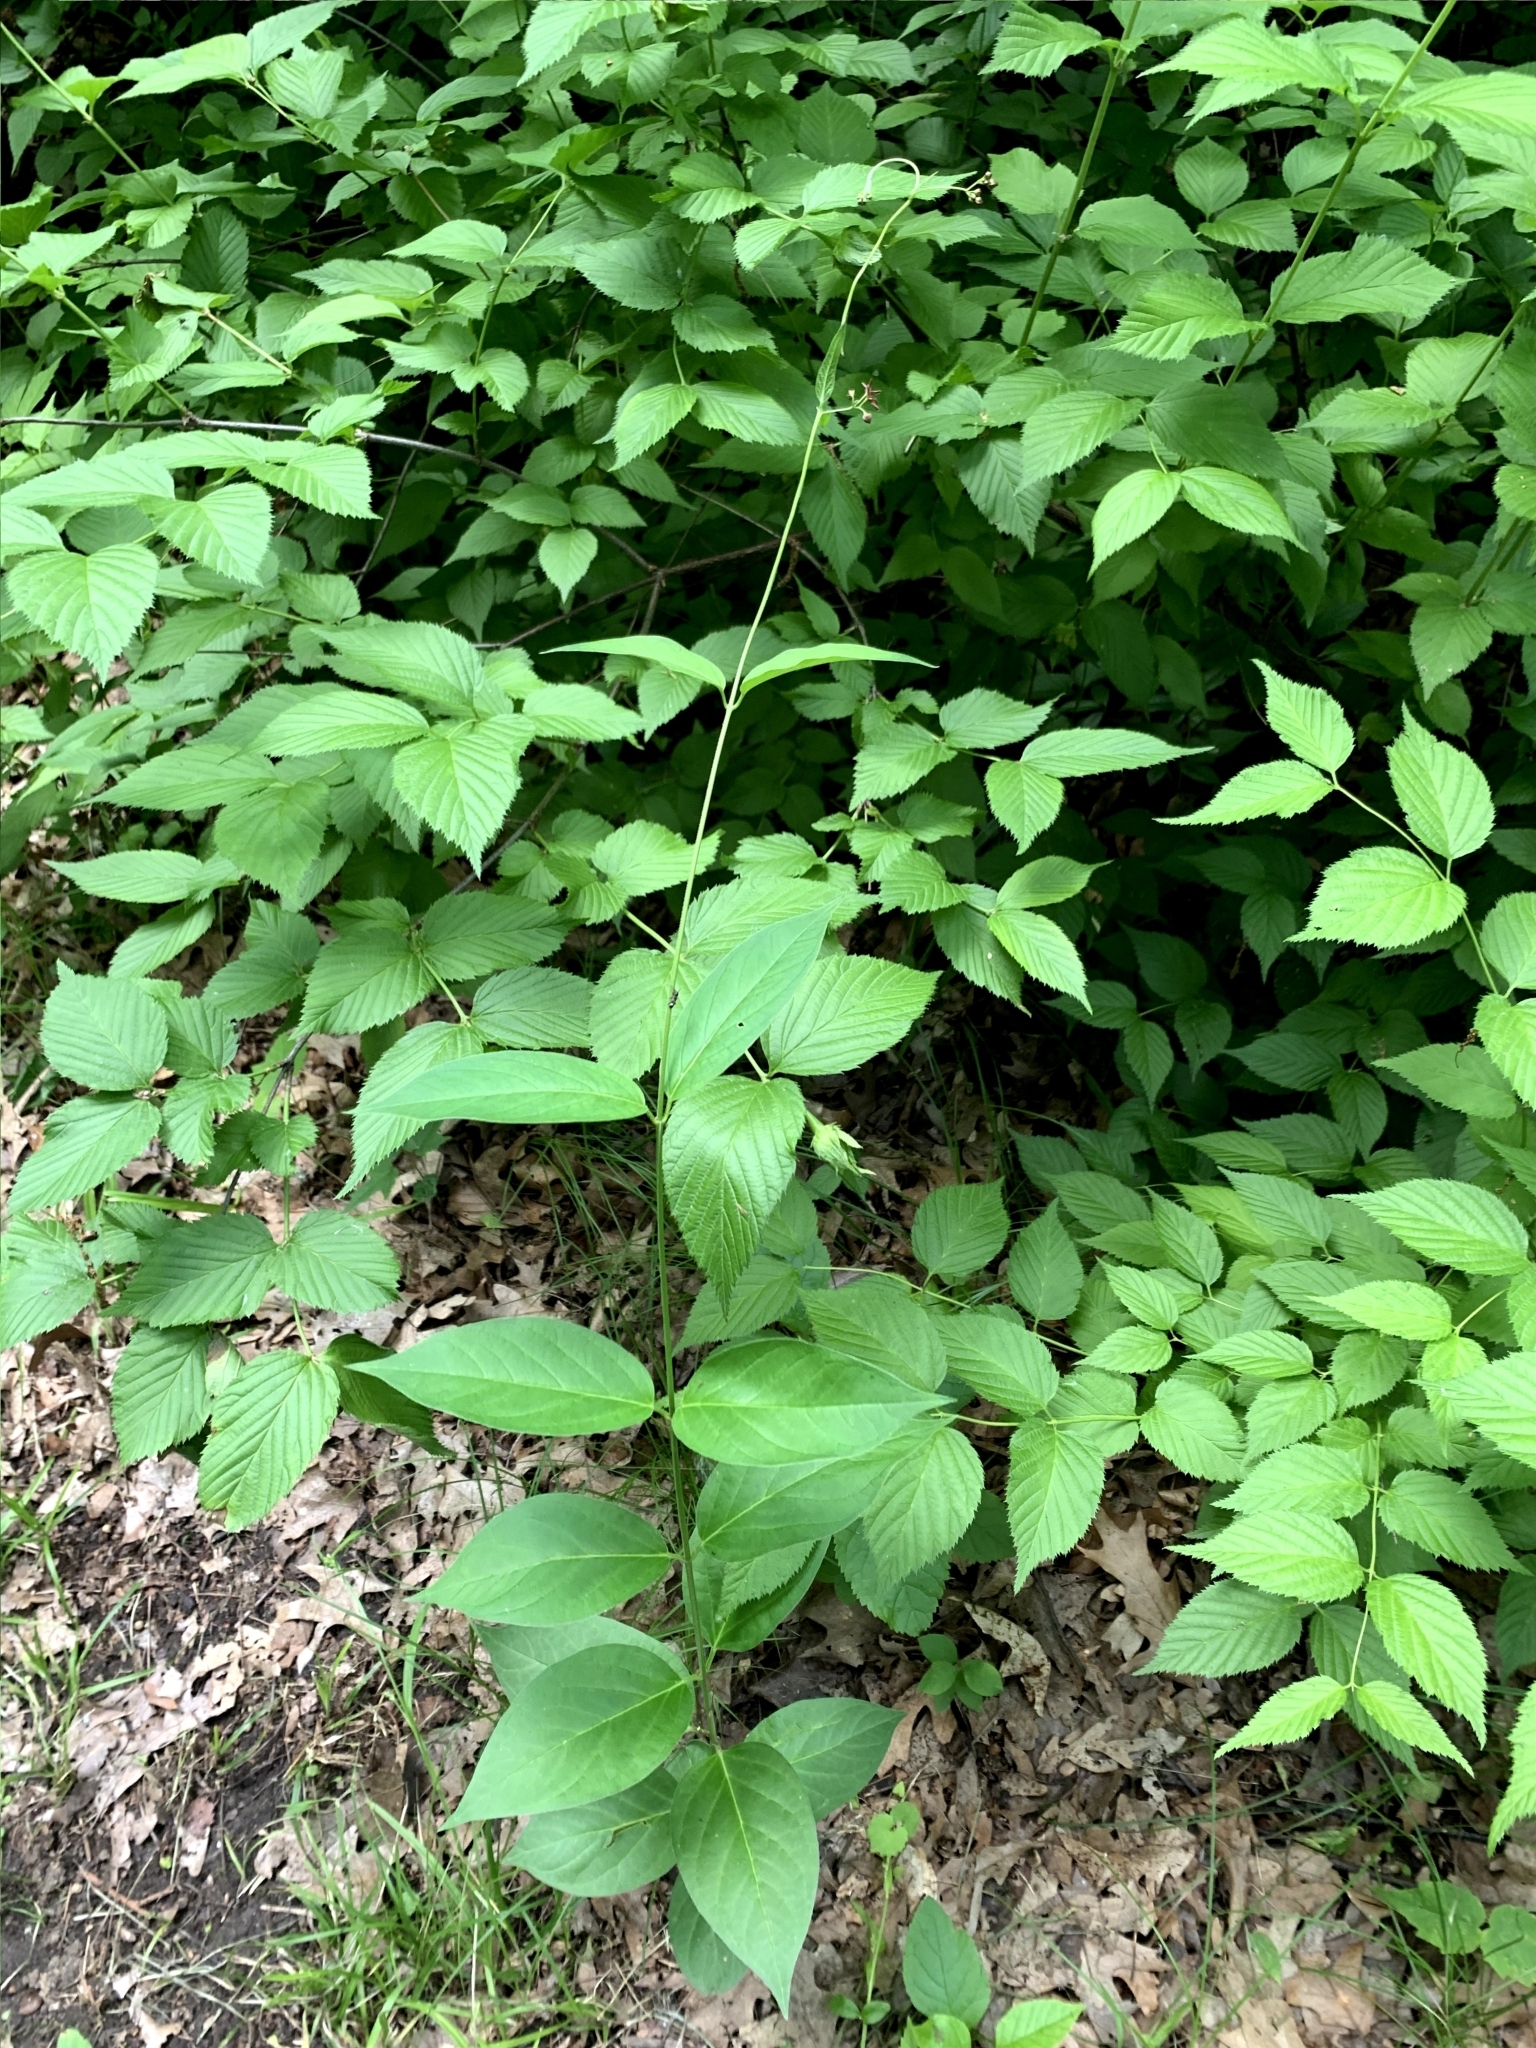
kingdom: Plantae
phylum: Tracheophyta
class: Magnoliopsida
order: Gentianales
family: Apocynaceae
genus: Vincetoxicum
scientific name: Vincetoxicum rossicum
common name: Dog-strangling vine
